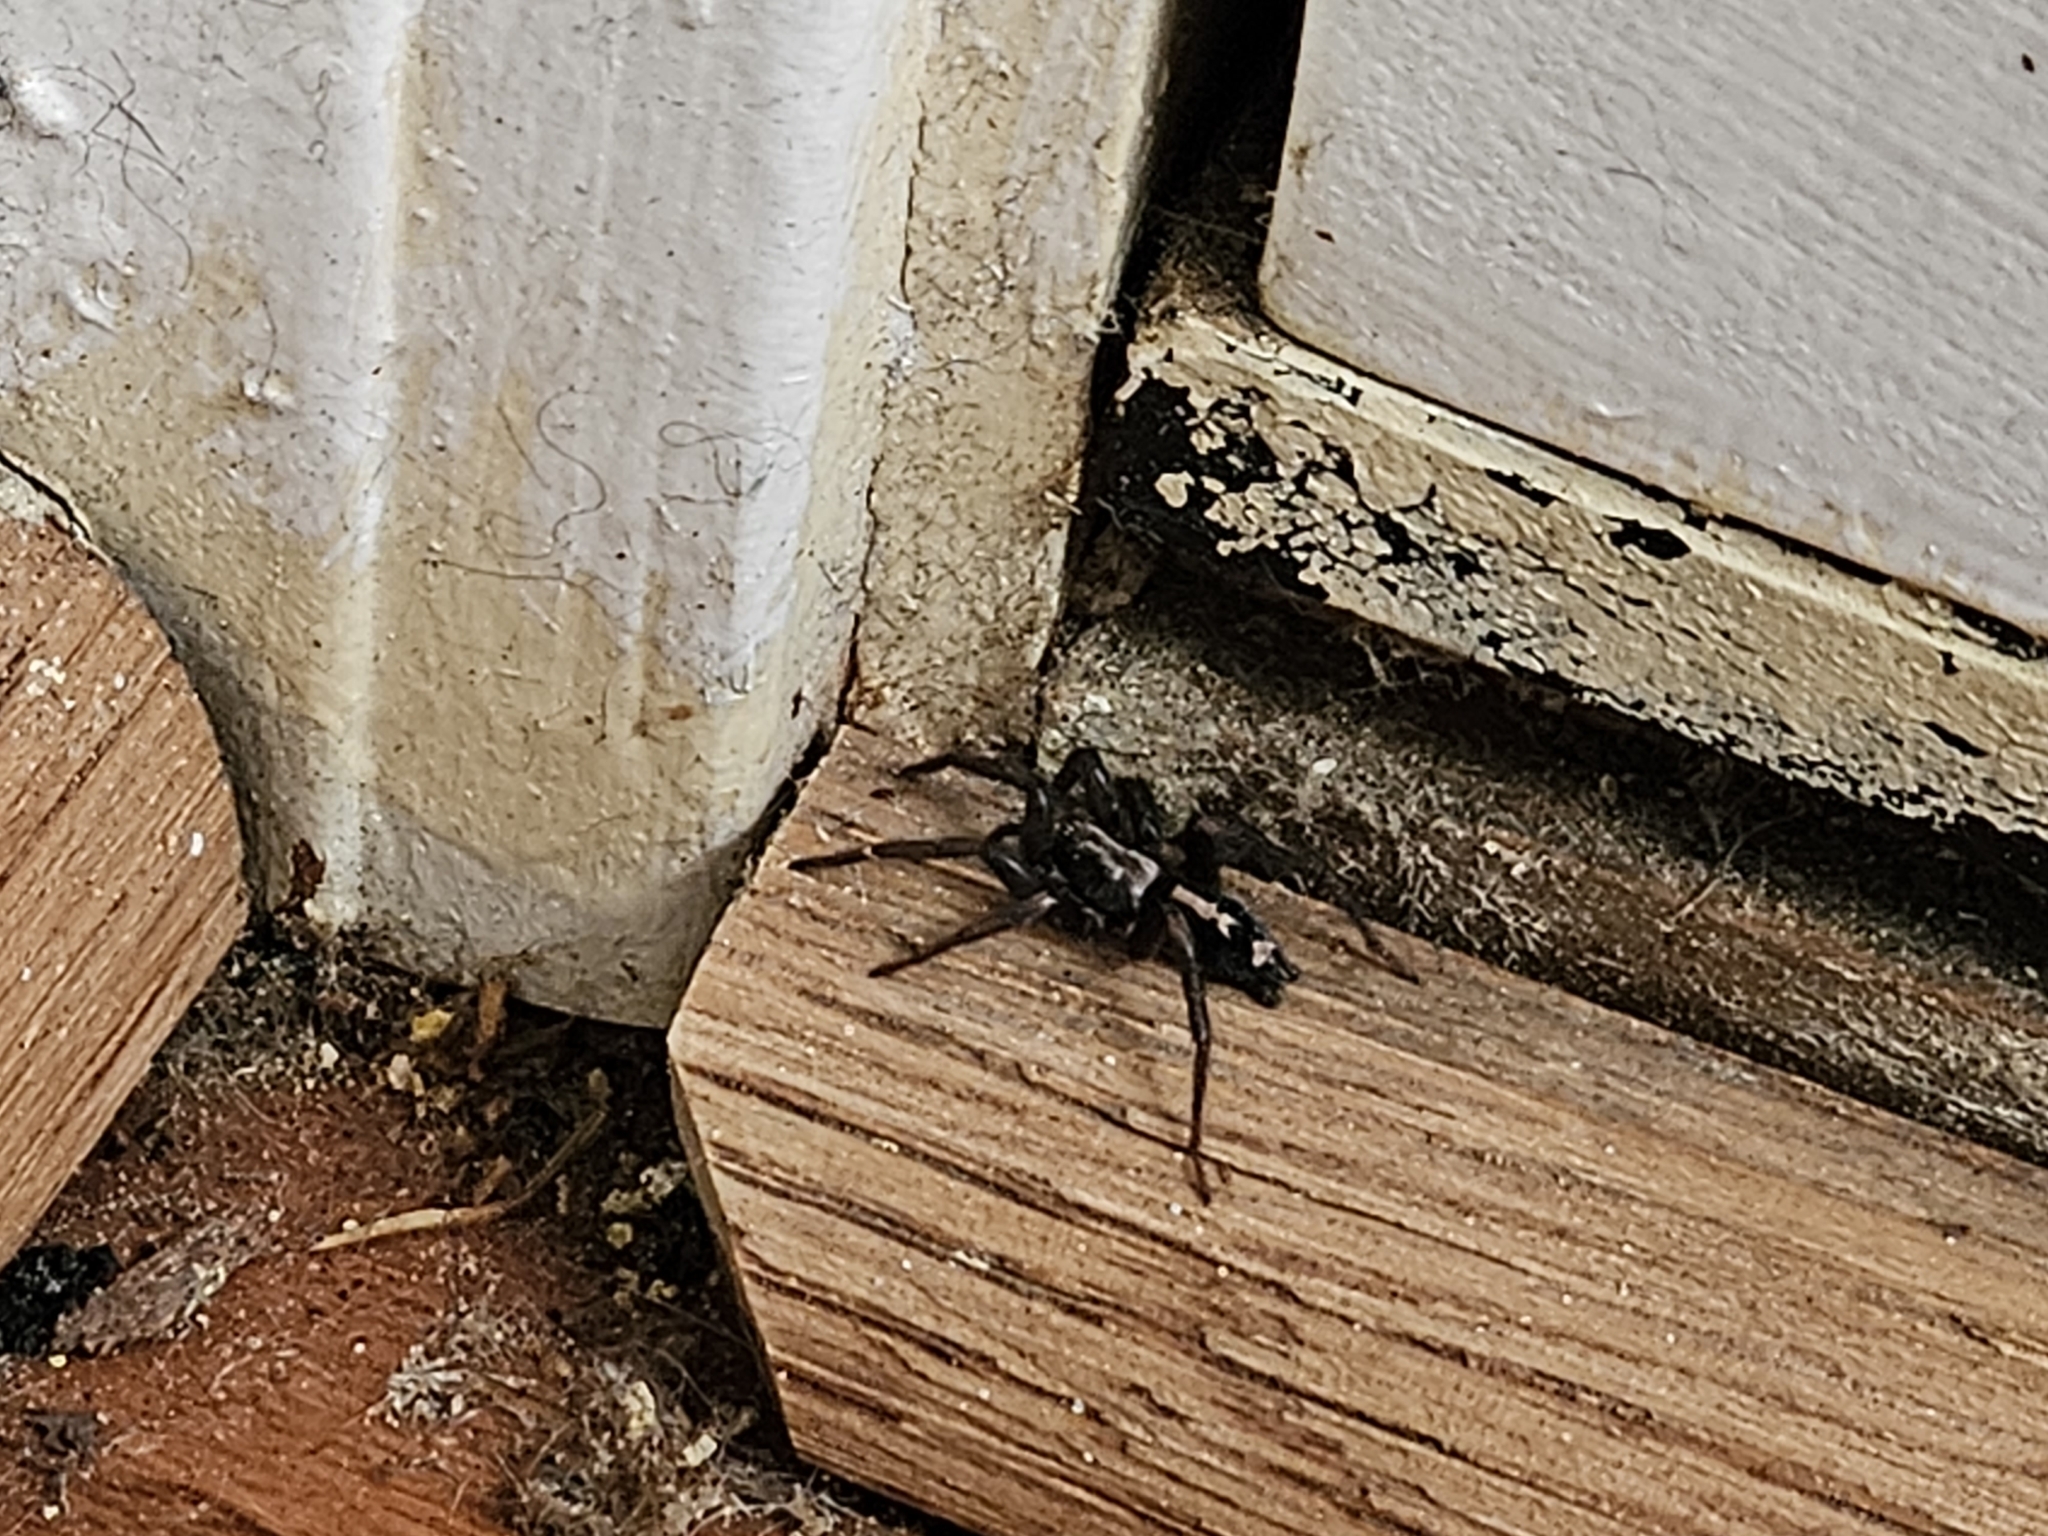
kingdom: Animalia
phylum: Arthropoda
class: Arachnida
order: Araneae
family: Gnaphosidae
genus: Herpyllus
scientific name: Herpyllus ecclesiasticus
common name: Eastern parson spider
